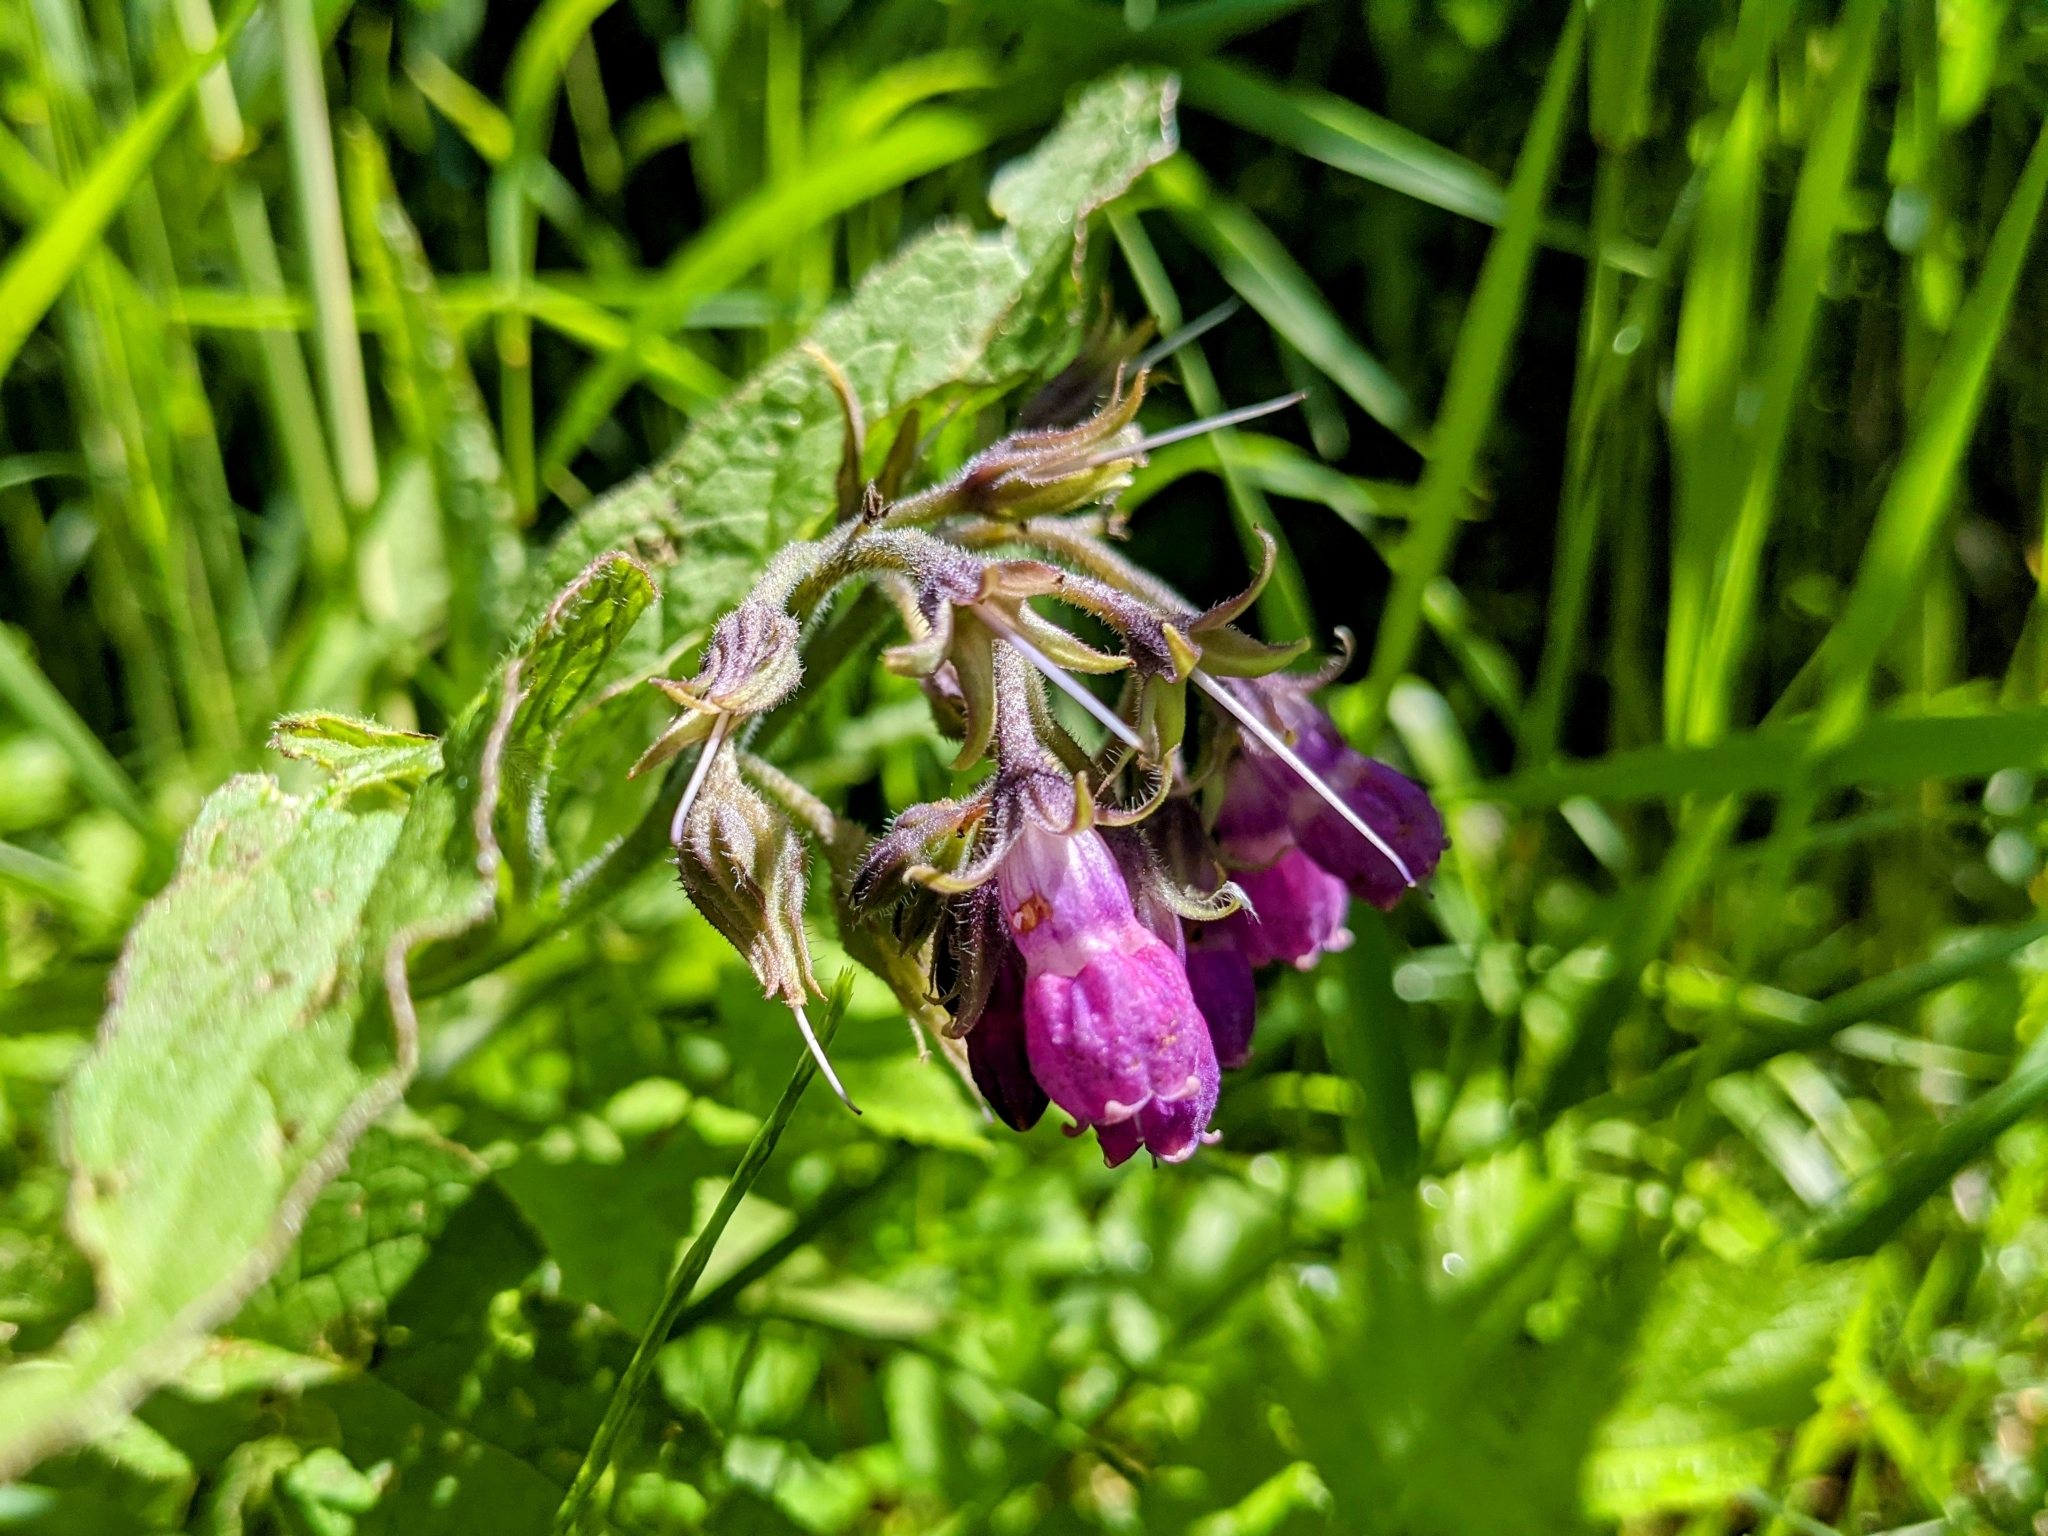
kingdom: Plantae
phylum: Tracheophyta
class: Magnoliopsida
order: Boraginales
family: Boraginaceae
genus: Symphytum
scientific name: Symphytum officinale
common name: Common comfrey
